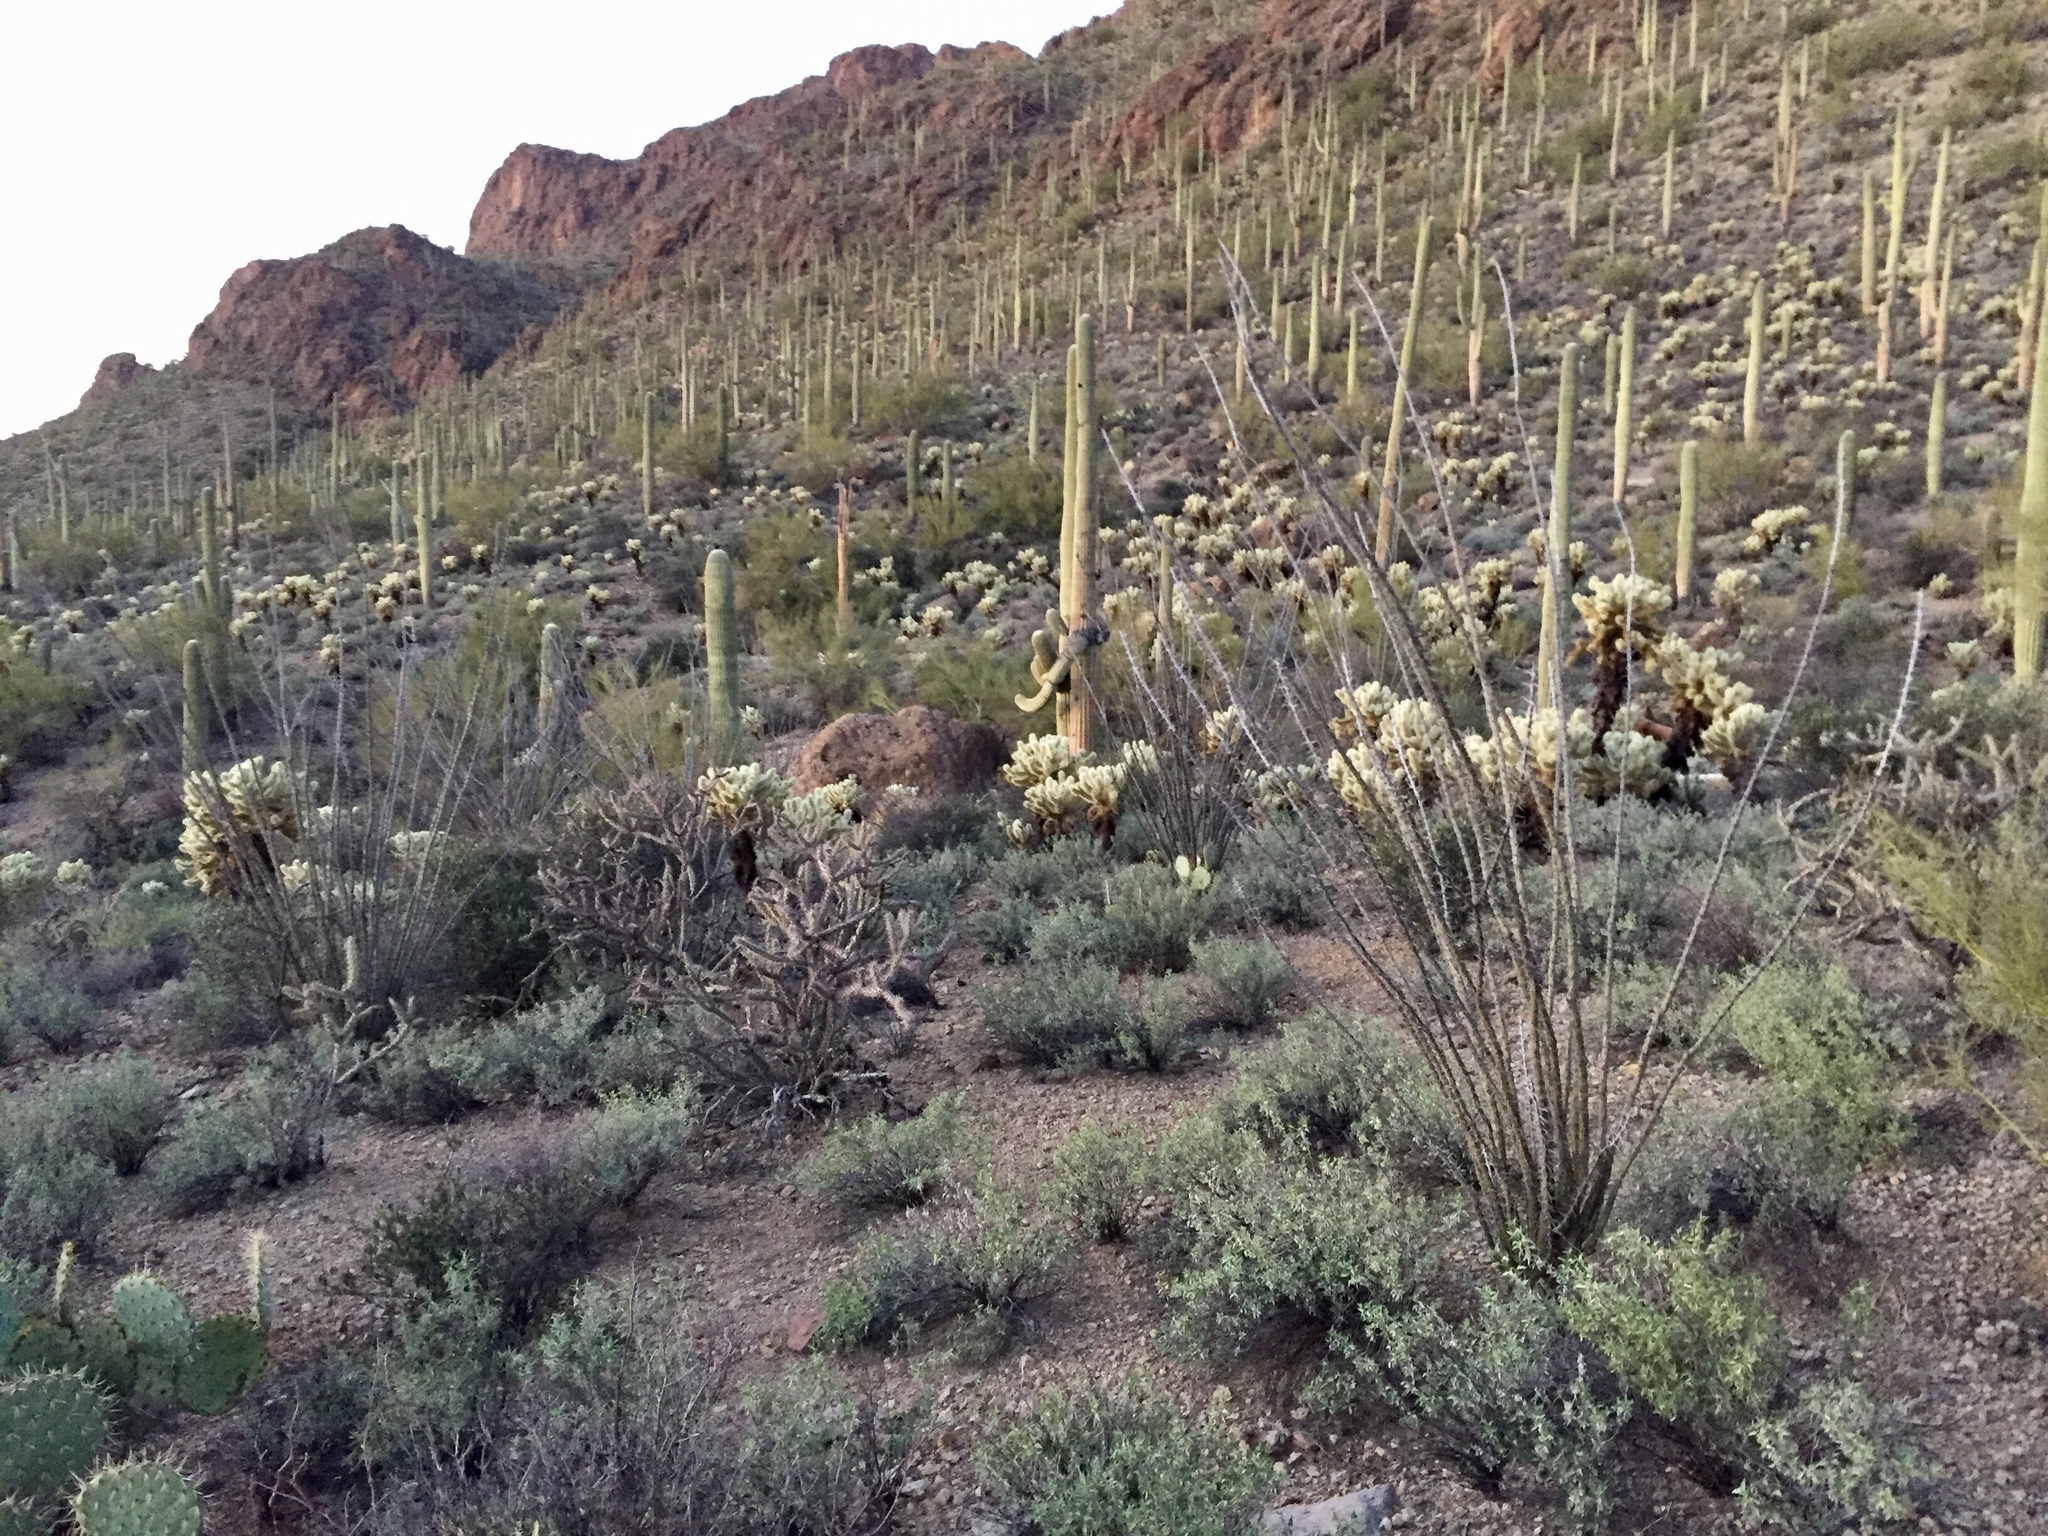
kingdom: Plantae
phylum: Tracheophyta
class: Magnoliopsida
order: Ericales
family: Fouquieriaceae
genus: Fouquieria
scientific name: Fouquieria splendens
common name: Vine-cactus
